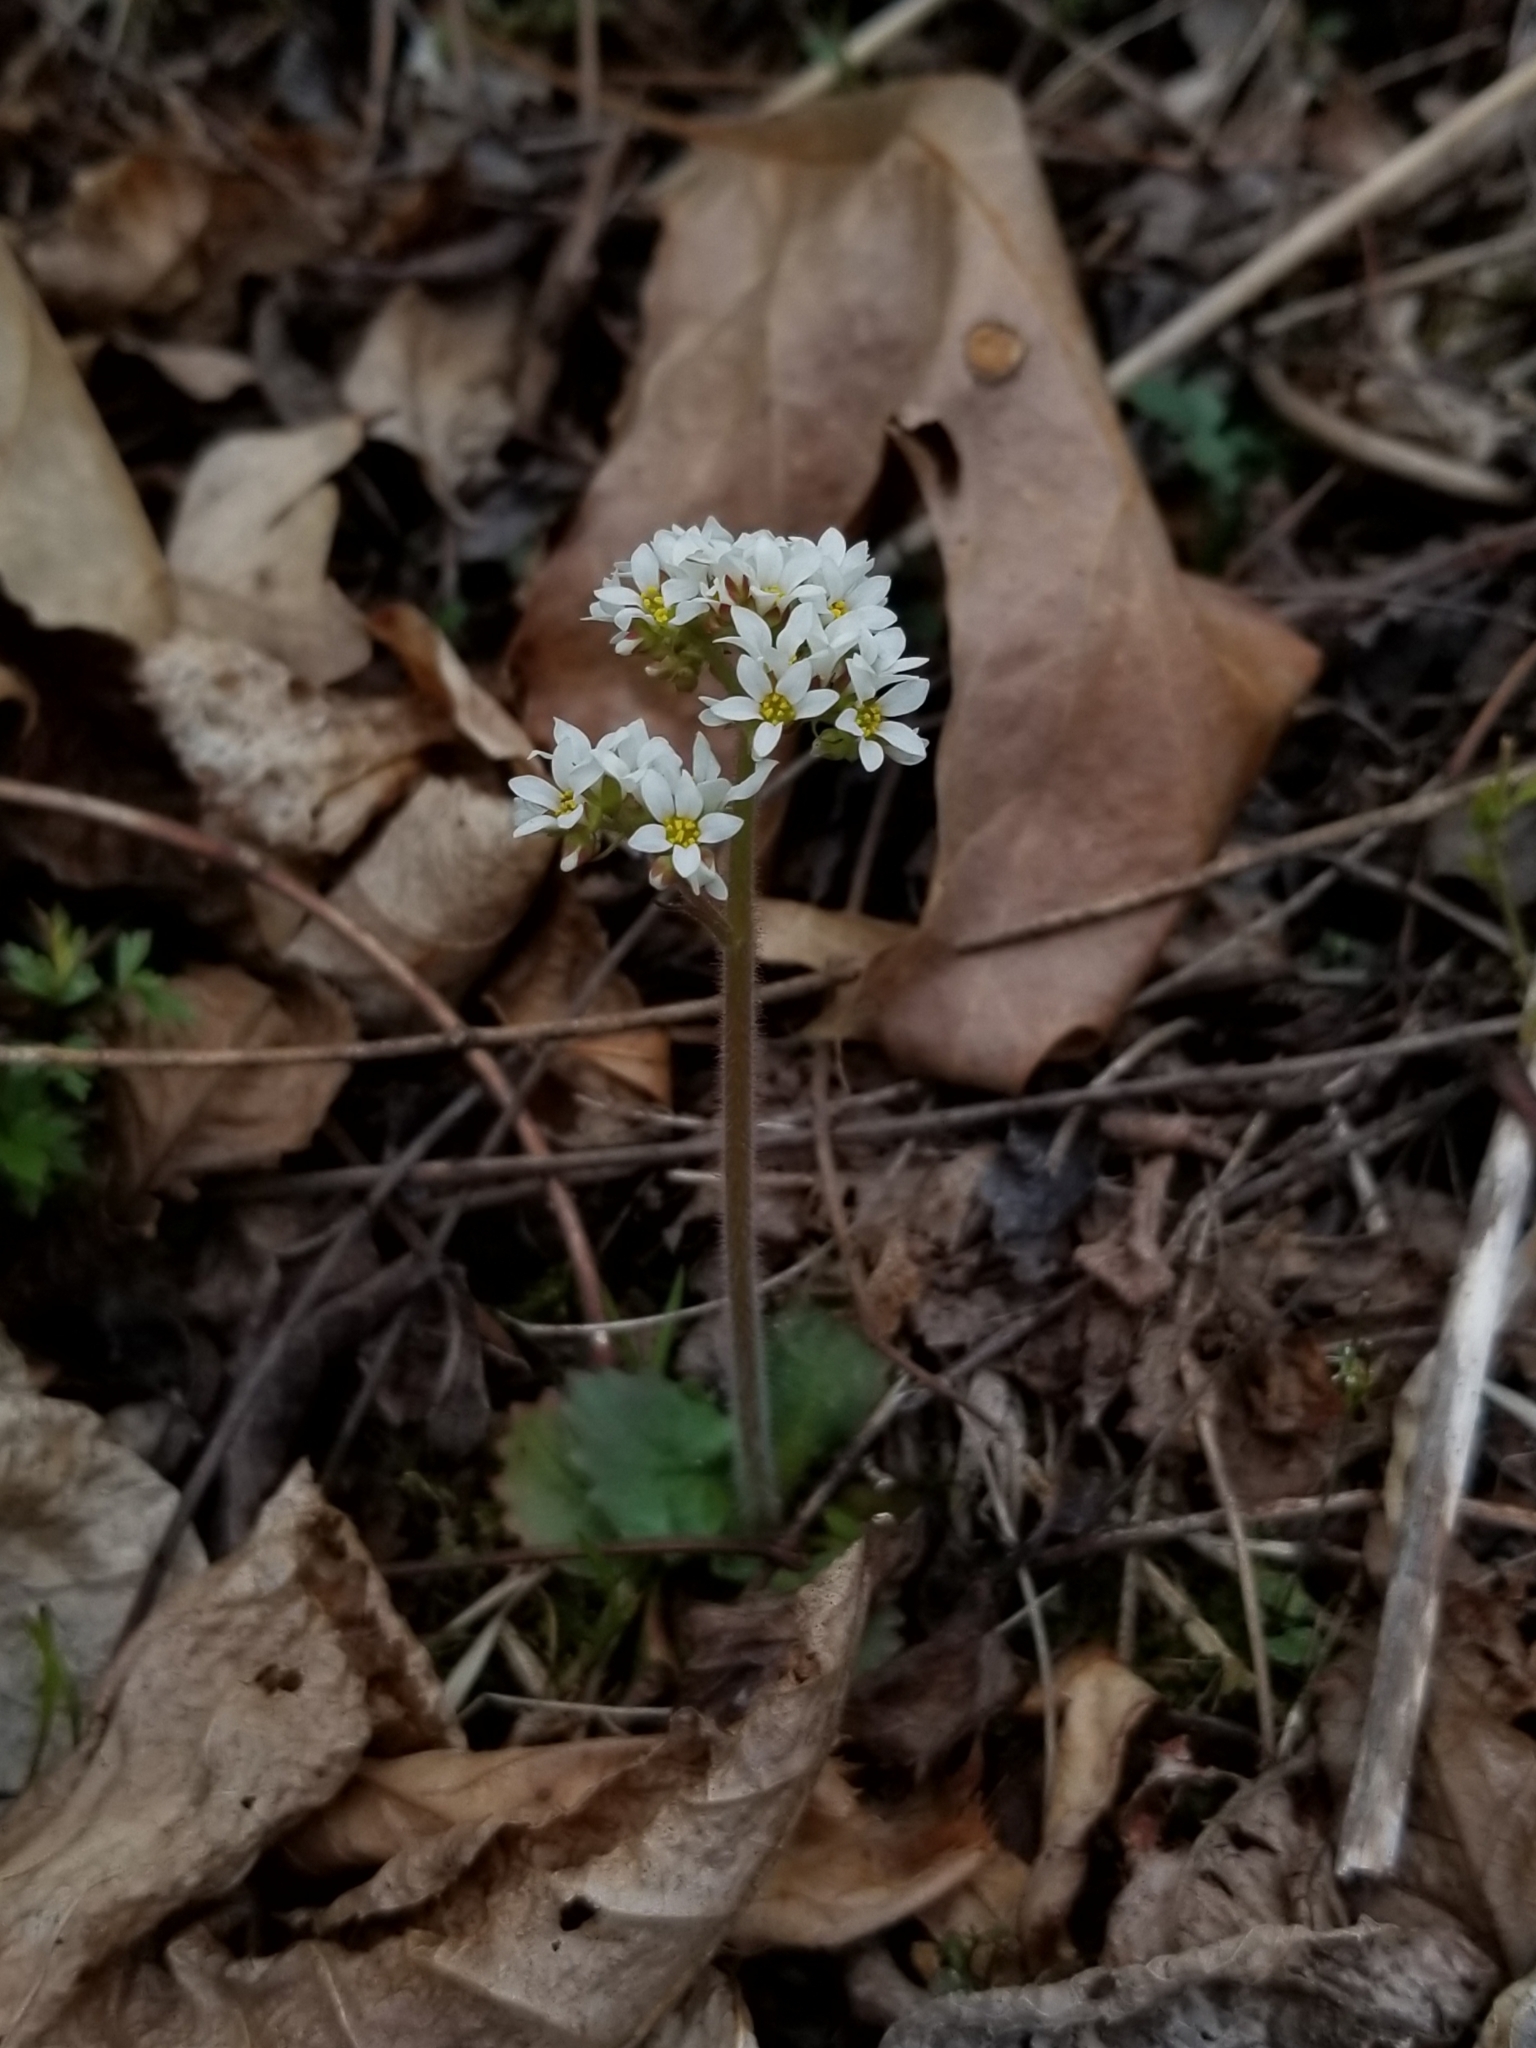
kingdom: Plantae
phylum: Tracheophyta
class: Magnoliopsida
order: Saxifragales
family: Saxifragaceae
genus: Micranthes
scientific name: Micranthes virginiensis
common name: Early saxifrage
